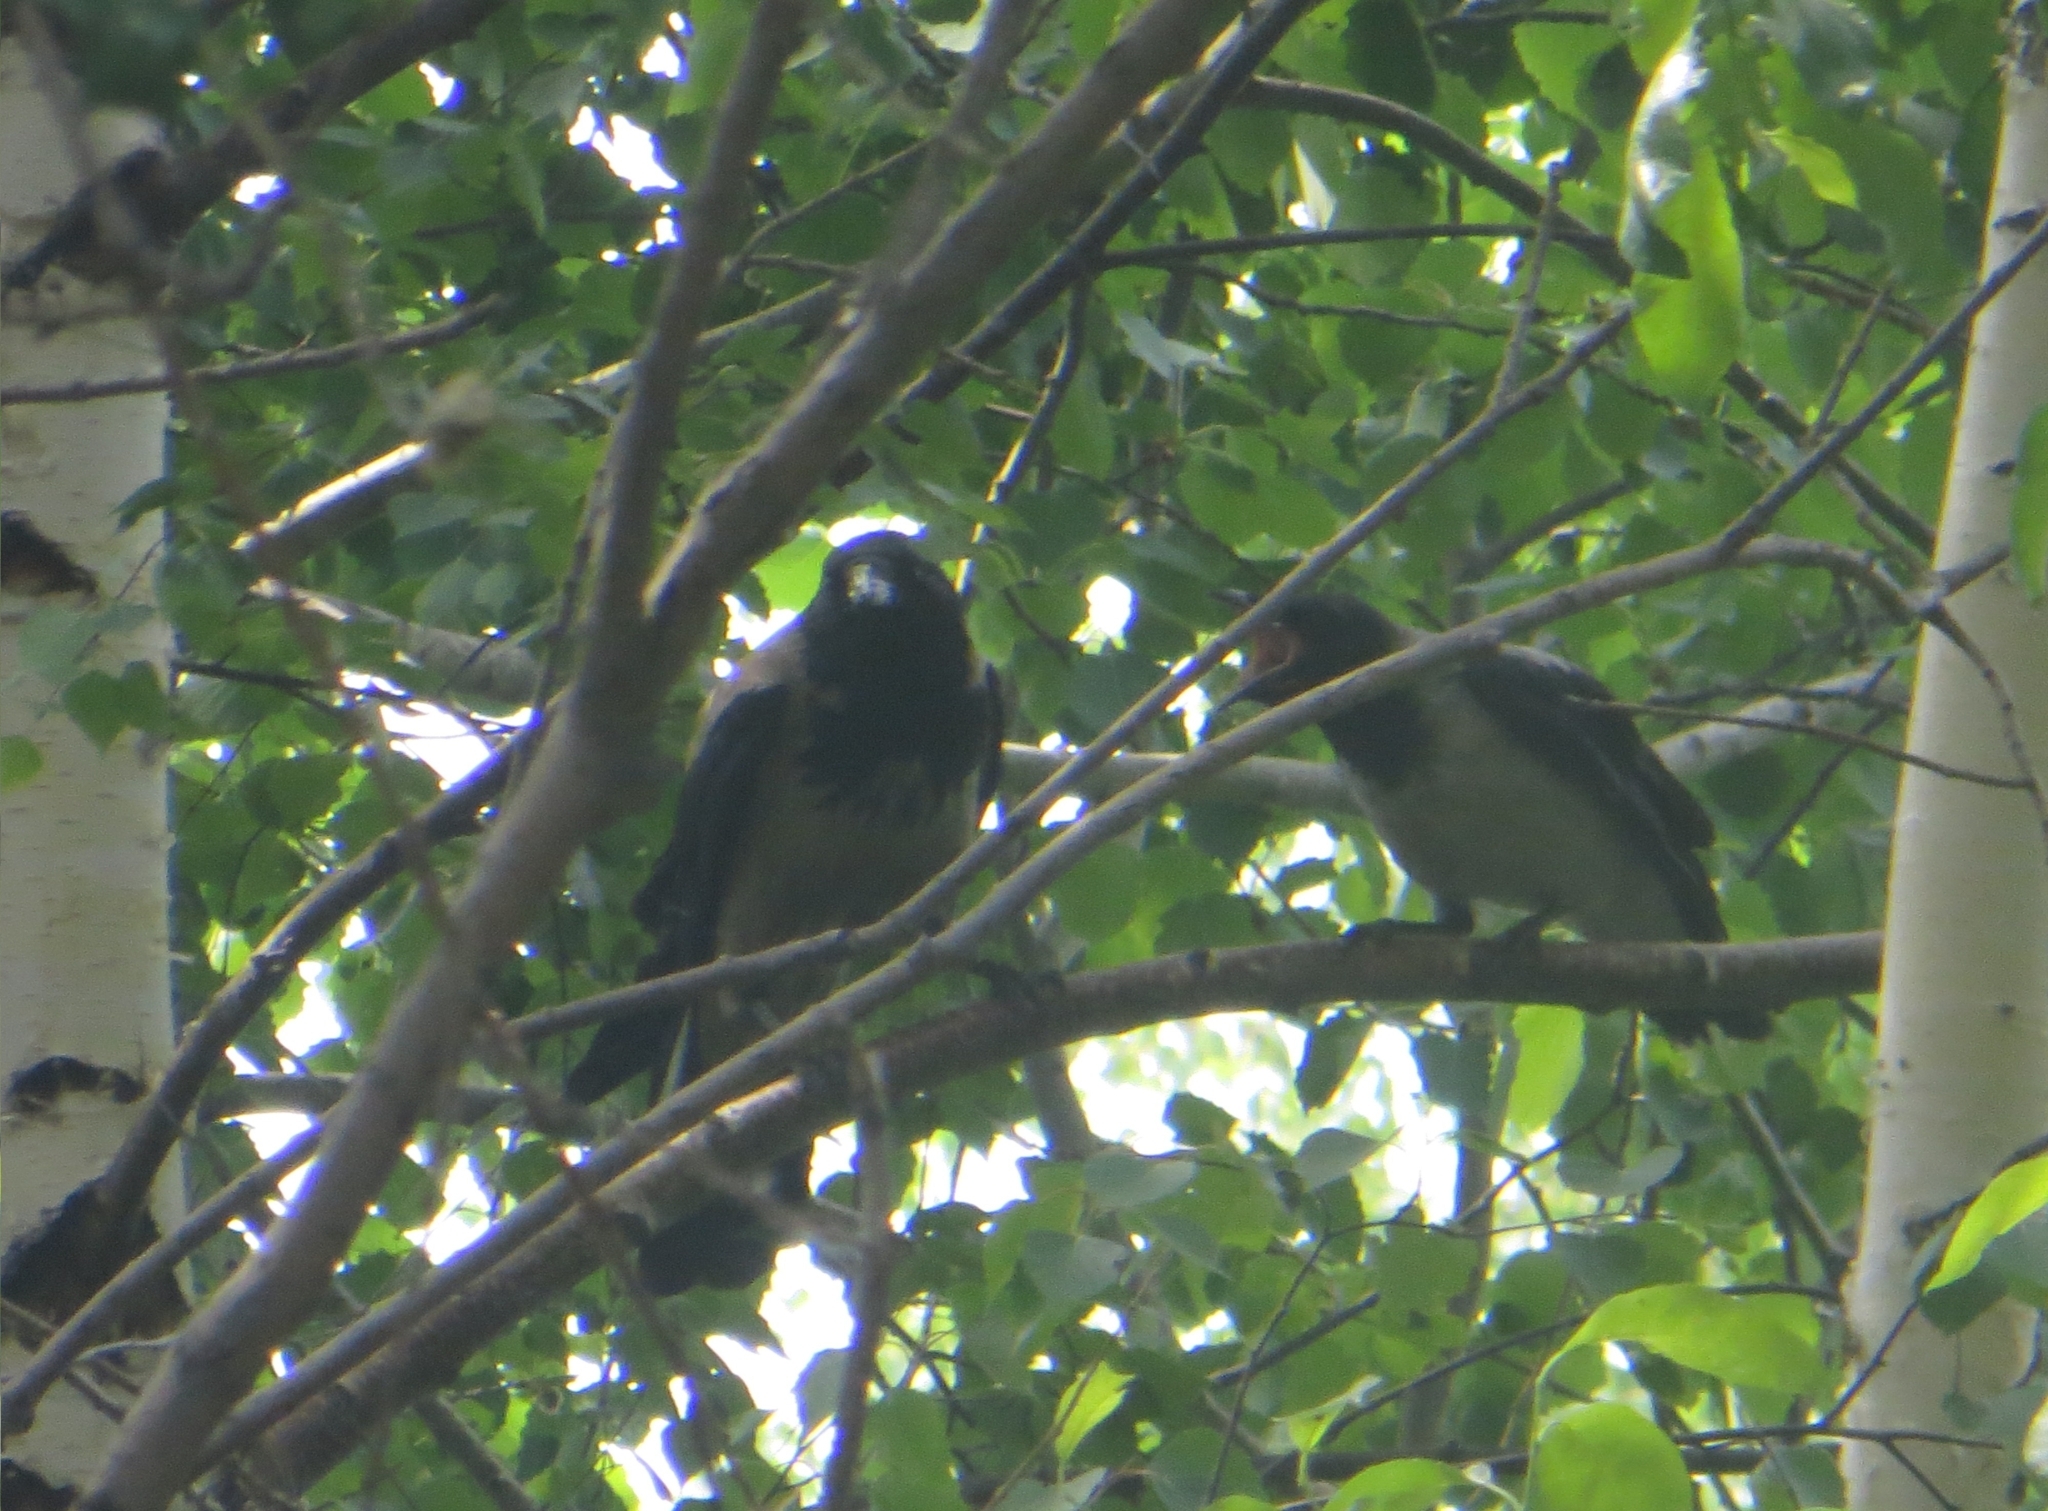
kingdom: Animalia
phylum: Chordata
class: Aves
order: Passeriformes
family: Corvidae
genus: Corvus
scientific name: Corvus cornix
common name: Hooded crow
